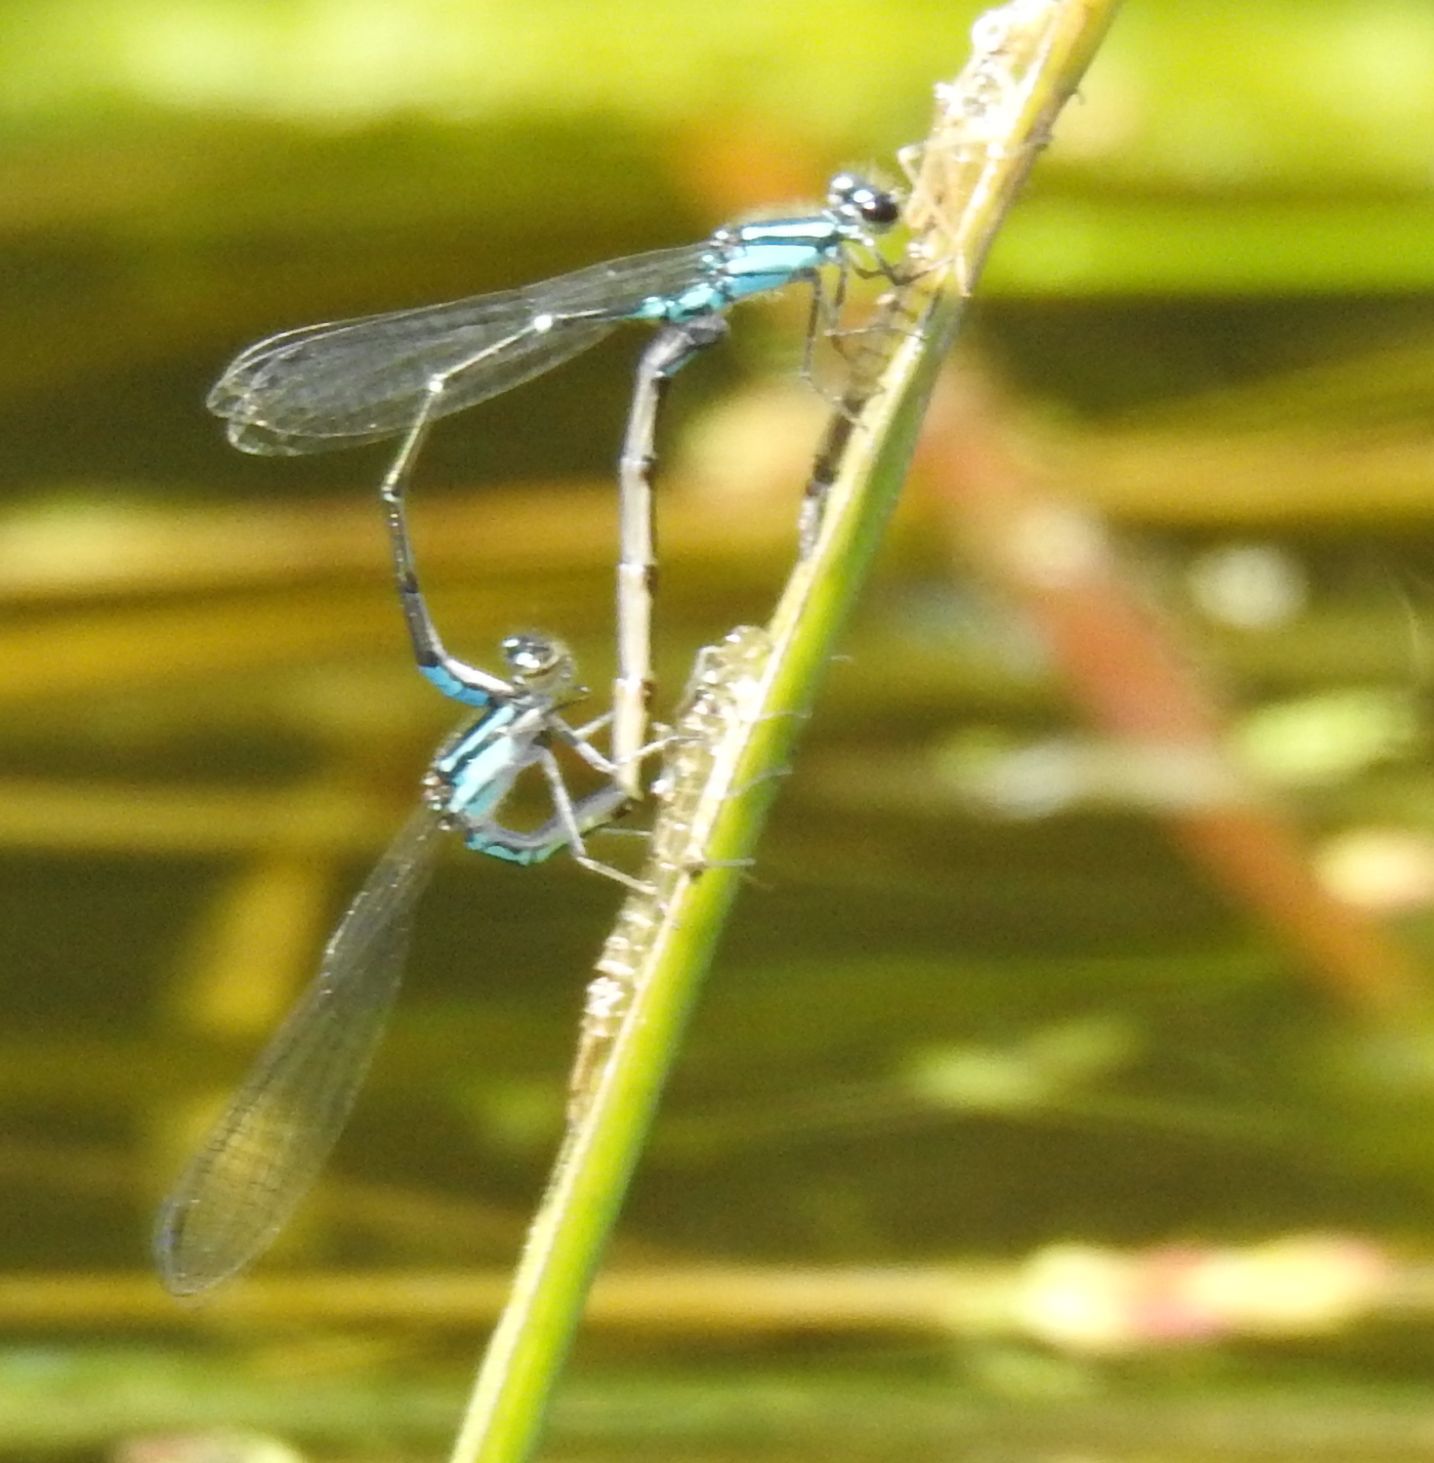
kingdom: Animalia
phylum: Arthropoda
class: Insecta
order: Odonata
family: Coenagrionidae
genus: Enallagma
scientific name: Enallagma geminatum
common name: Skimming bluet
